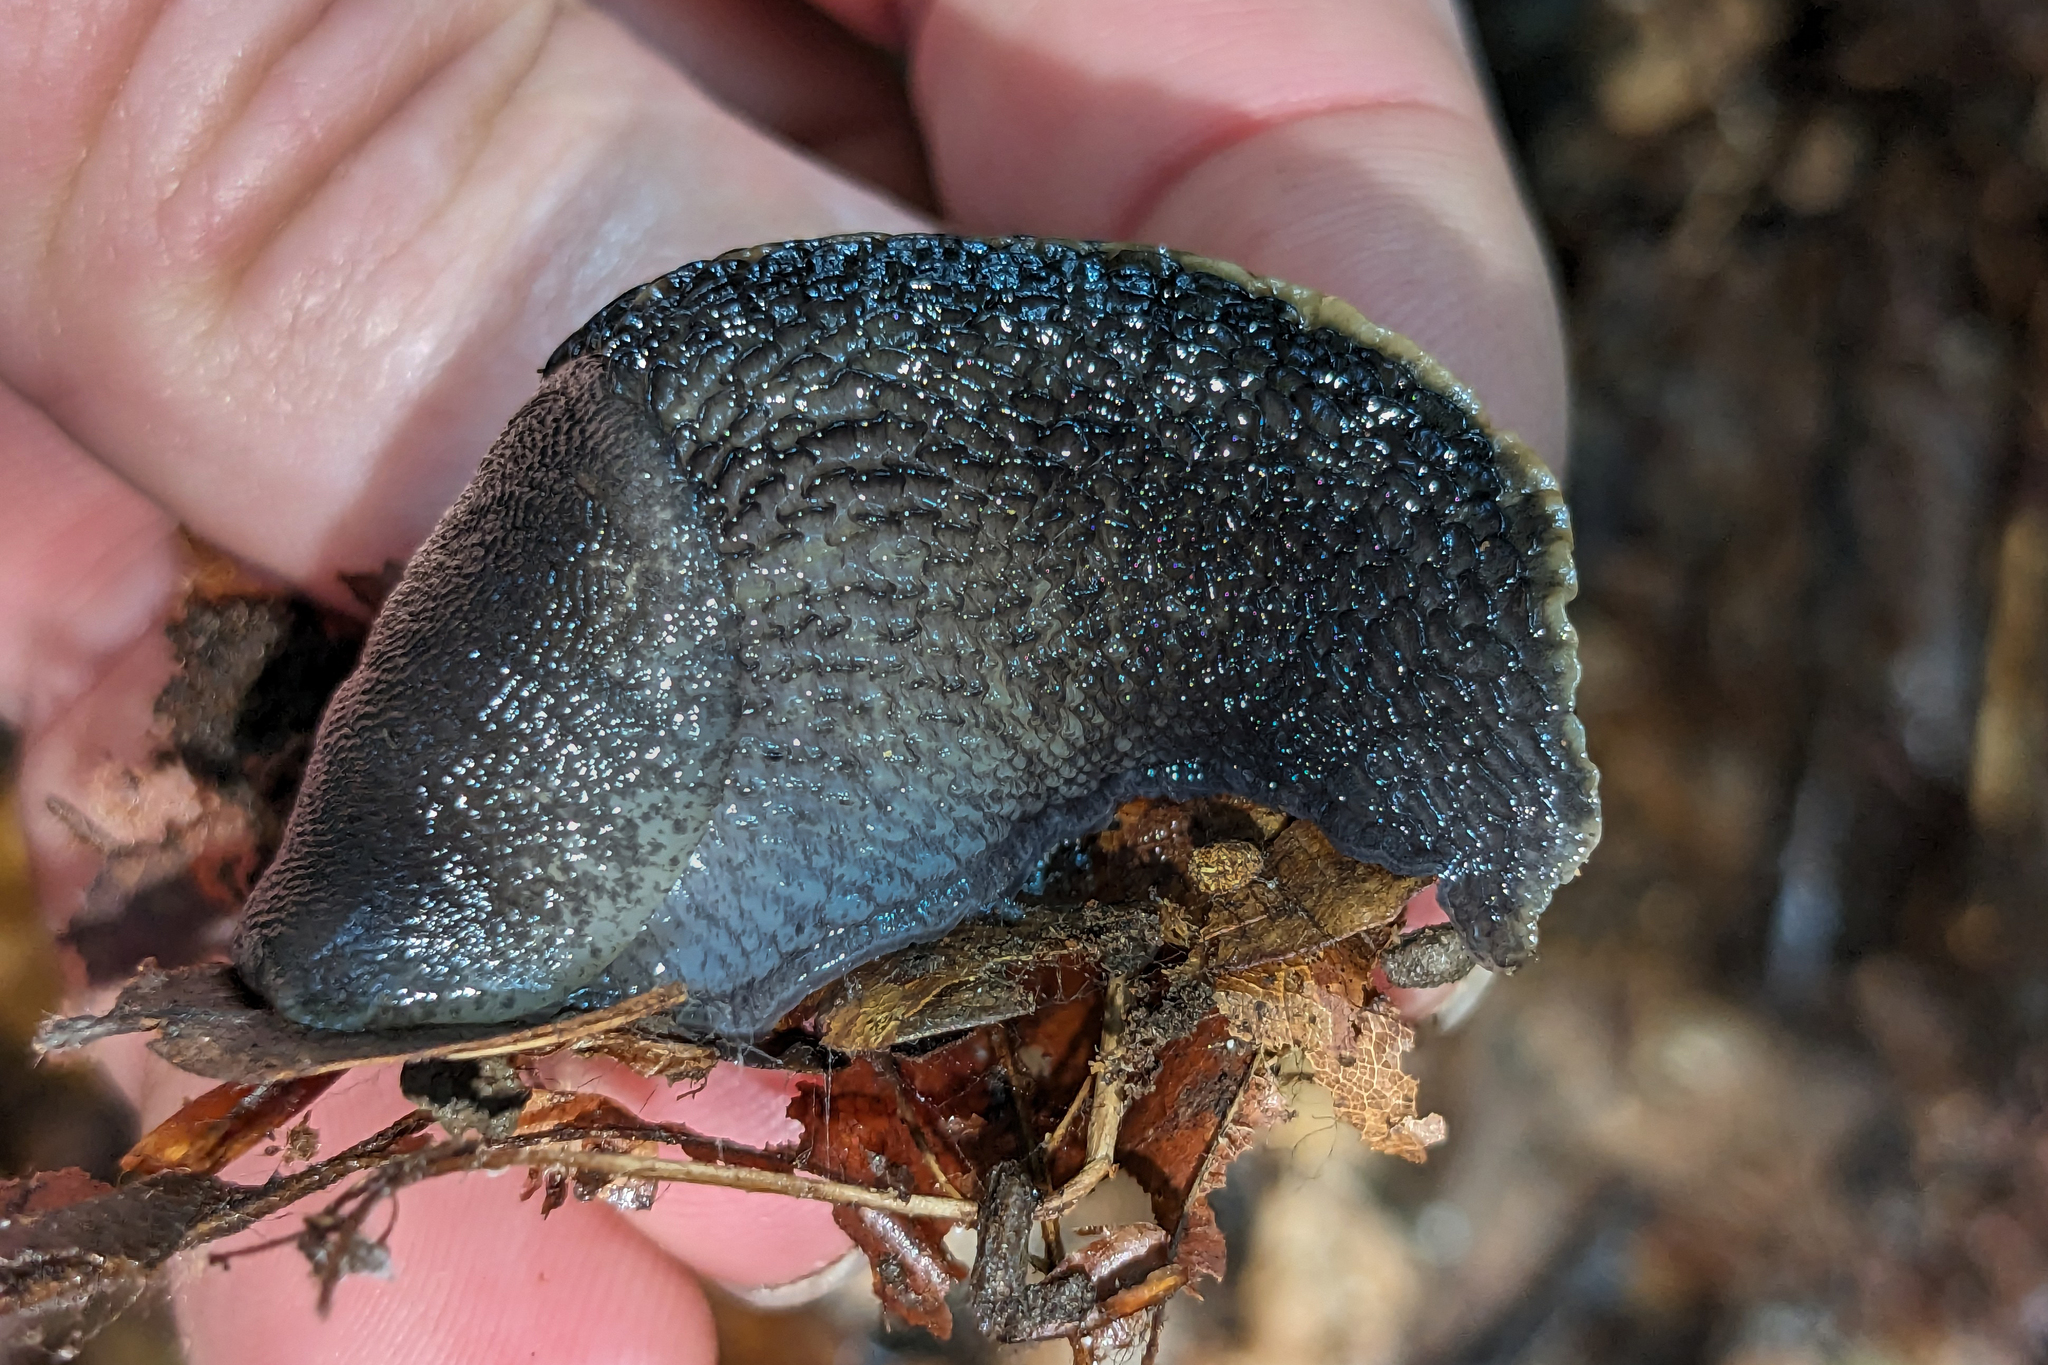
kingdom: Animalia
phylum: Mollusca
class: Gastropoda
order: Stylommatophora
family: Limacidae
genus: Limax
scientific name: Limax cinereoniger
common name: Ash-black slug
